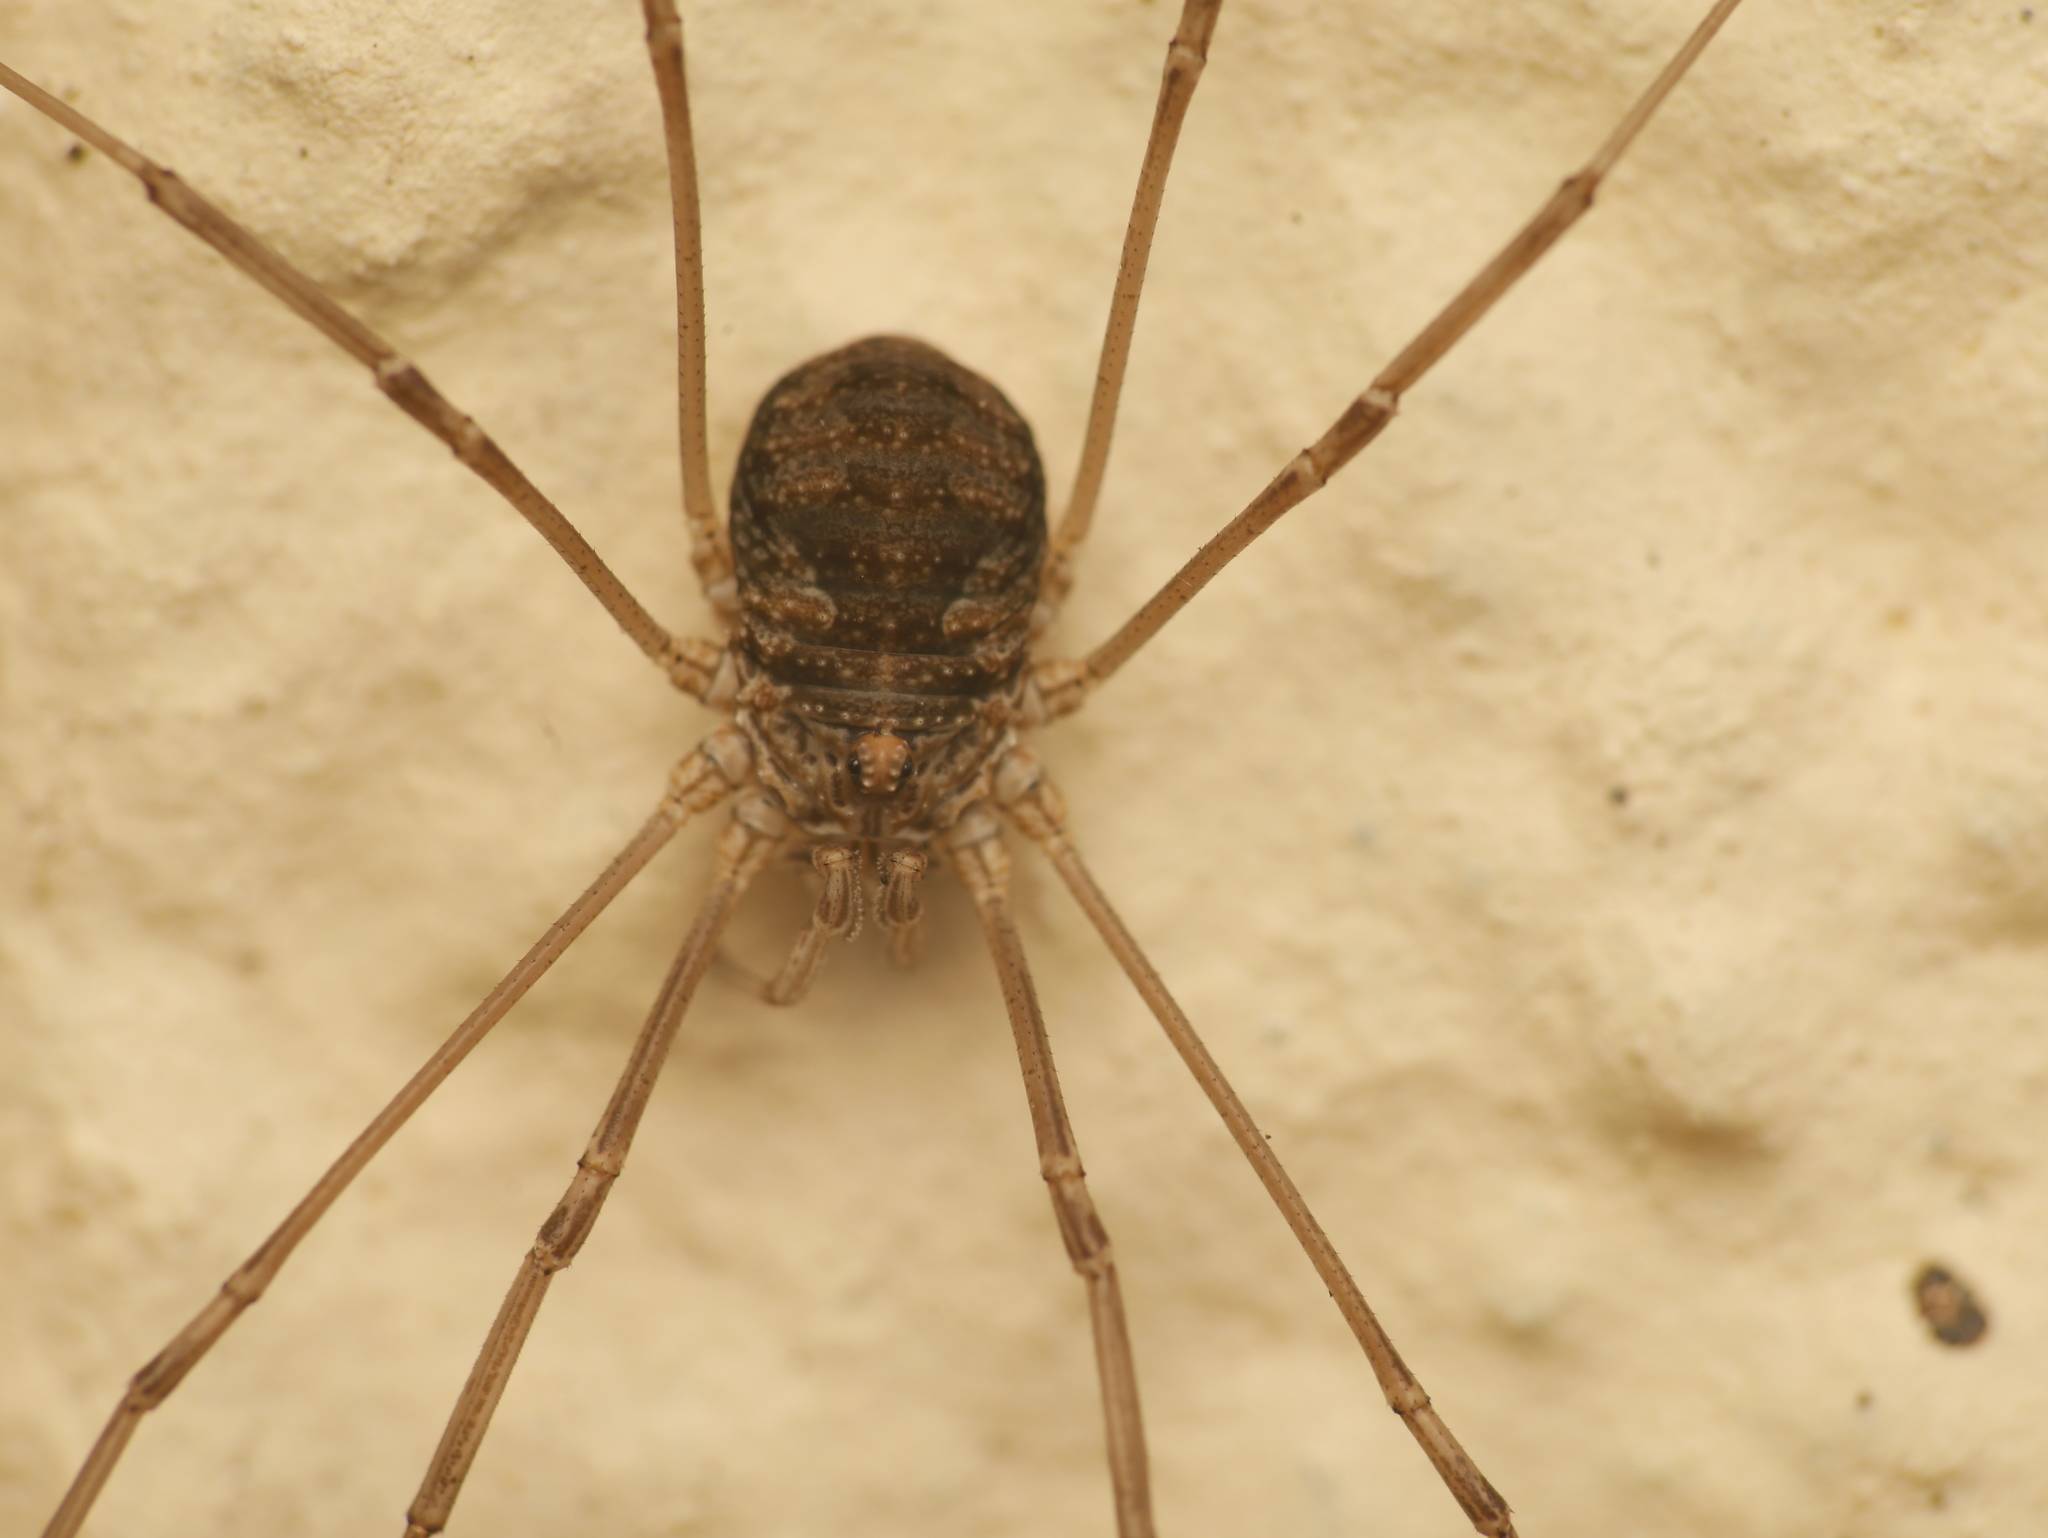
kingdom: Animalia
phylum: Arthropoda
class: Arachnida
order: Opiliones
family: Phalangiidae
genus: Phalangium
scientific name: Phalangium opilio
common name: Daddy longleg
